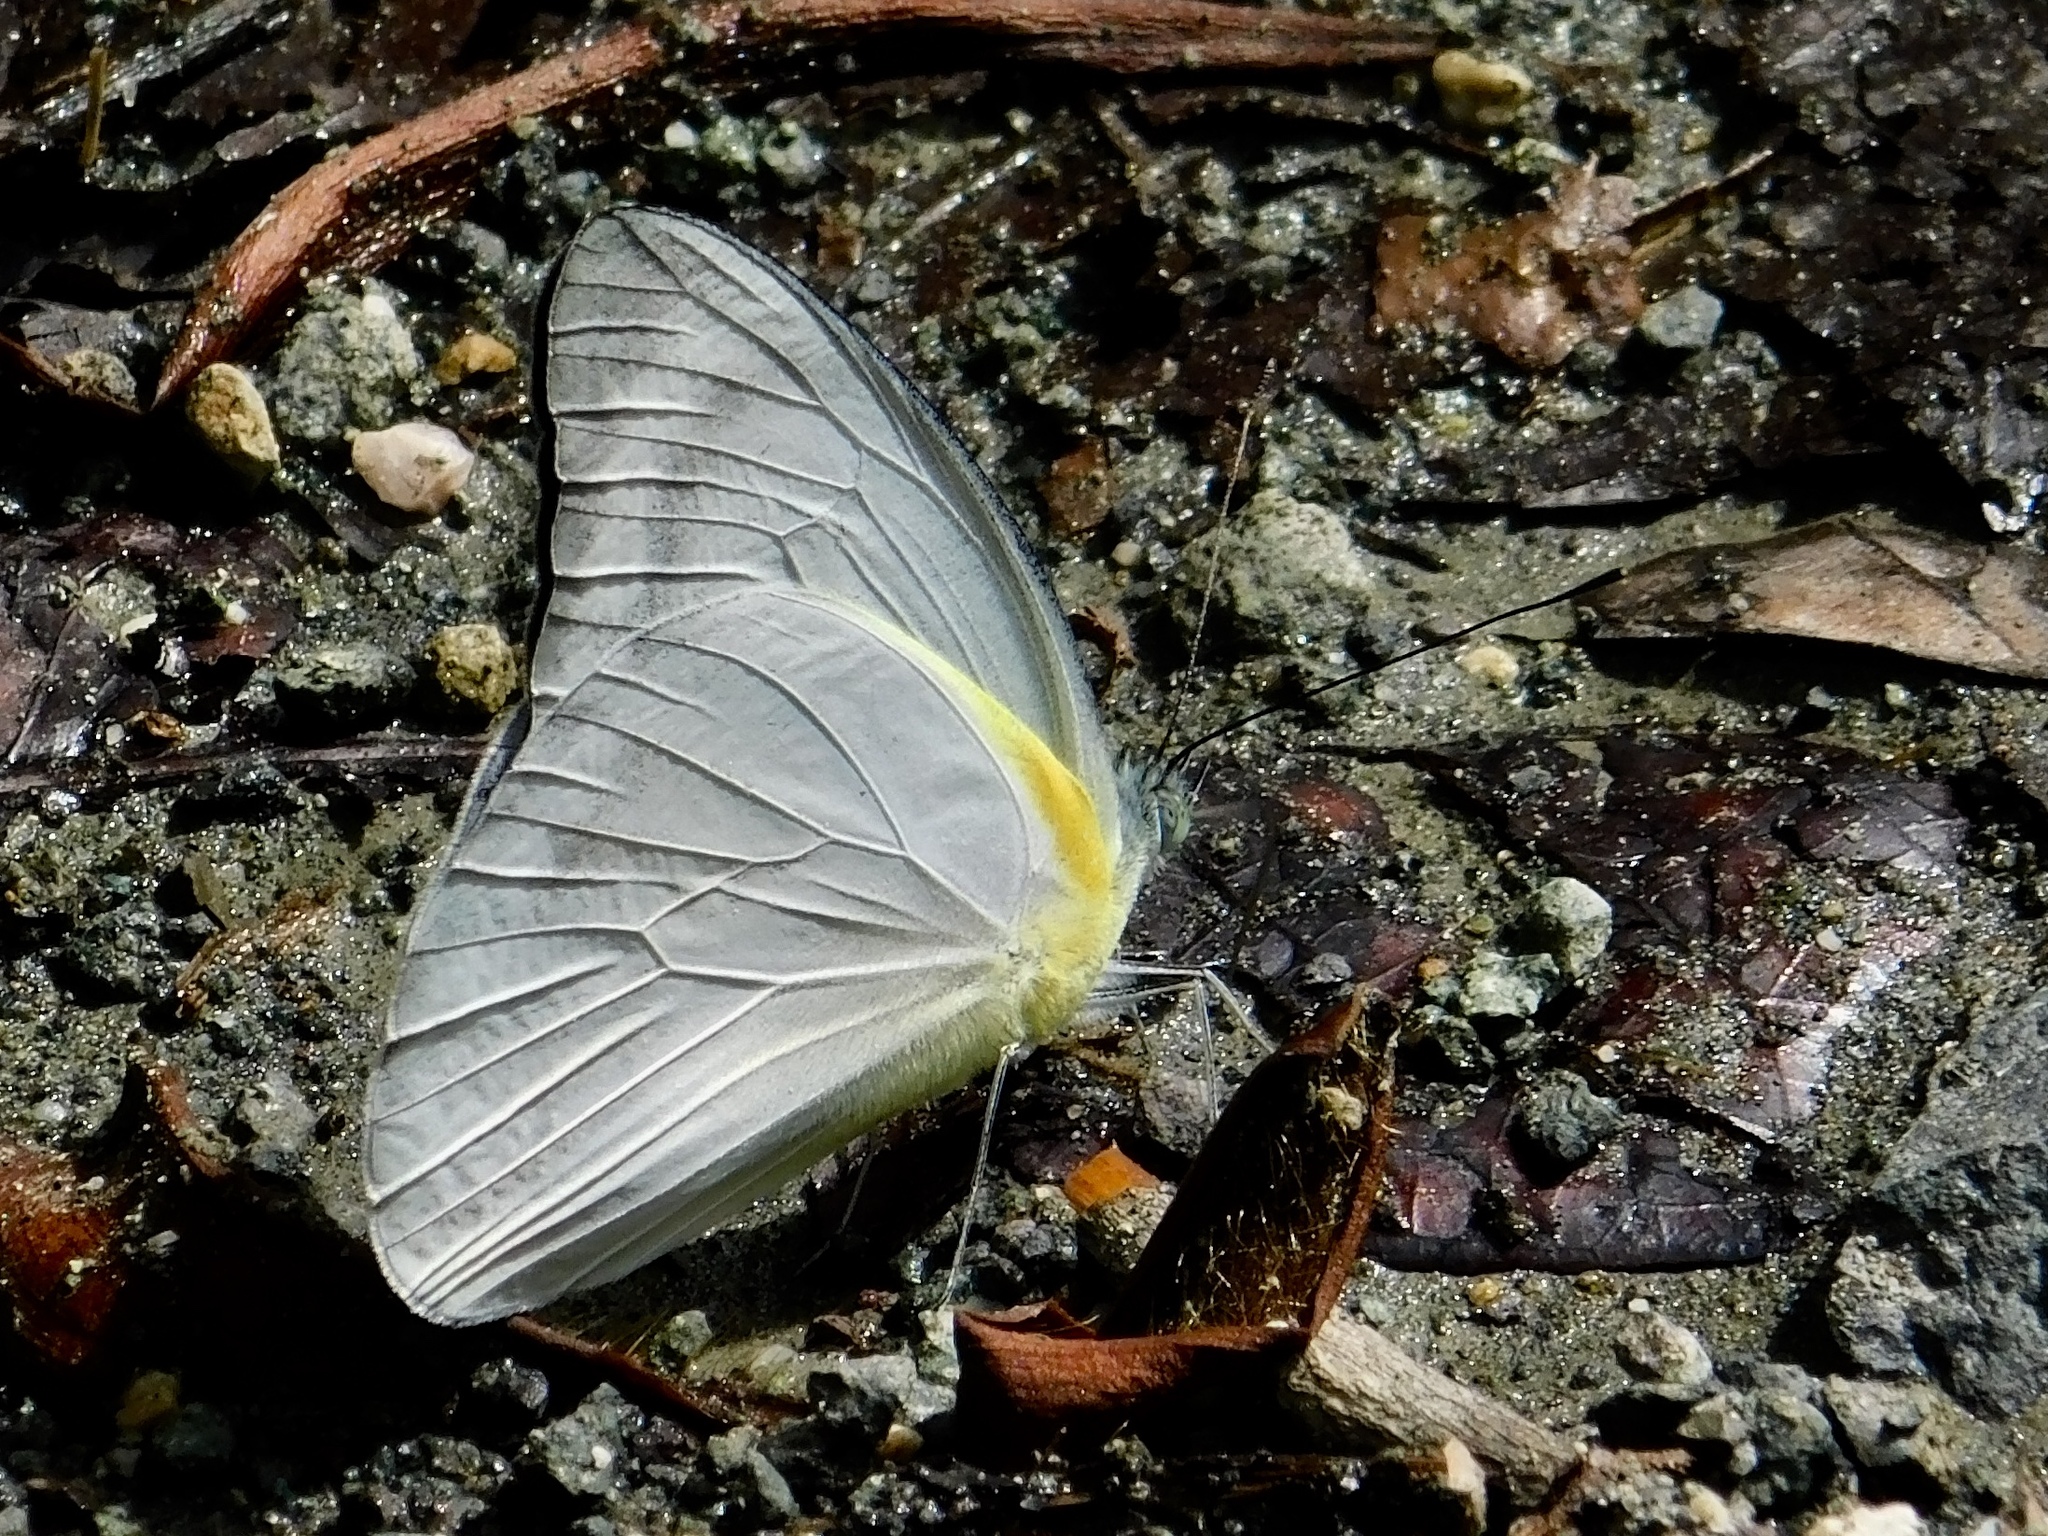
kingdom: Animalia
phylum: Arthropoda
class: Insecta
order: Lepidoptera
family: Pieridae
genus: Appias
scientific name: Appias celestina
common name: Common migrant
